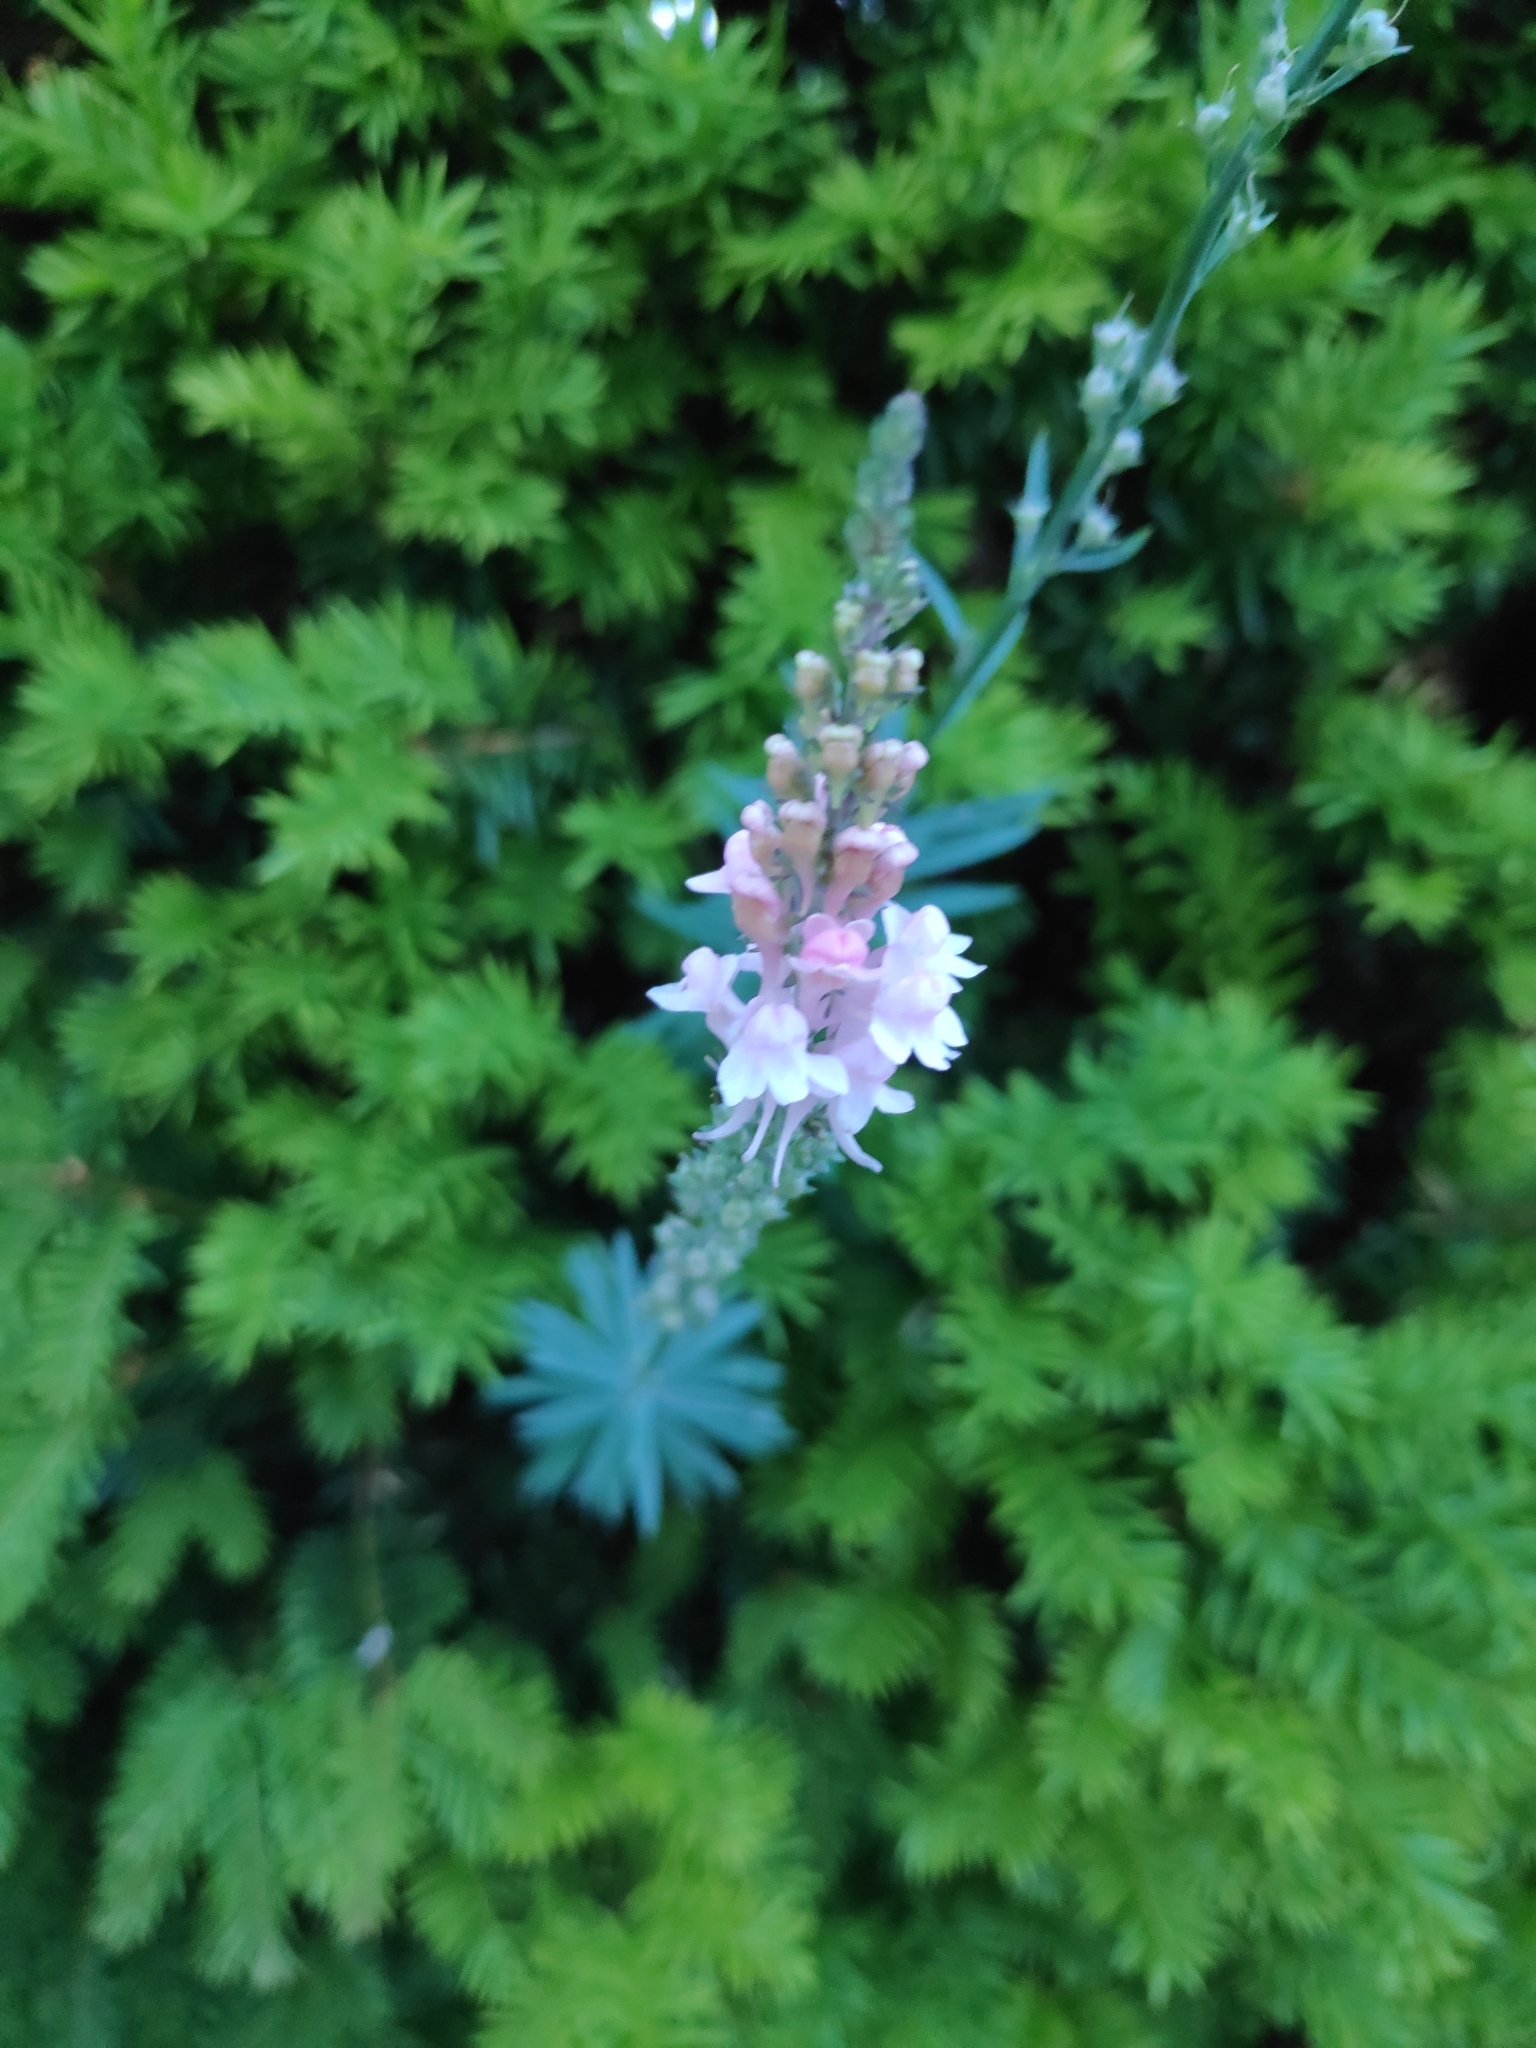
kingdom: Plantae
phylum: Tracheophyta
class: Magnoliopsida
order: Lamiales
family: Plantaginaceae
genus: Linaria
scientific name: Linaria purpurea
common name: Purple toadflax
